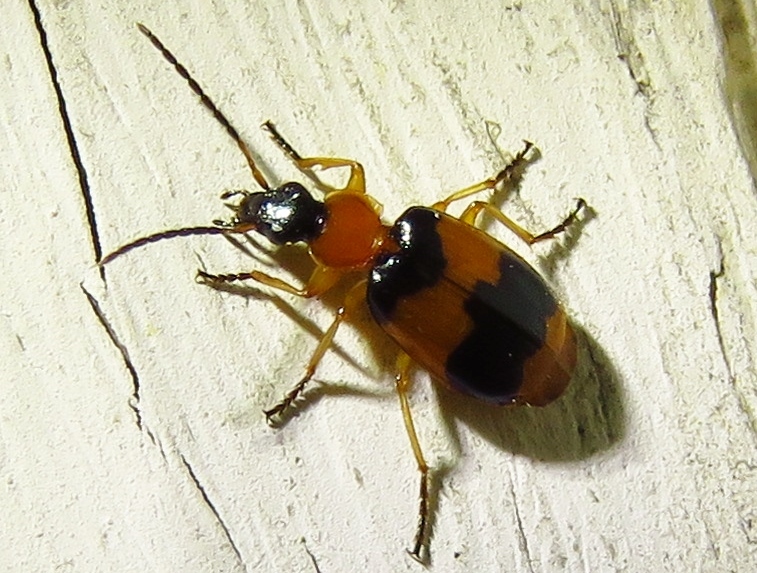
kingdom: Animalia
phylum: Arthropoda
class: Insecta
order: Coleoptera
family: Carabidae
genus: Lebia
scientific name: Lebia pulchella
